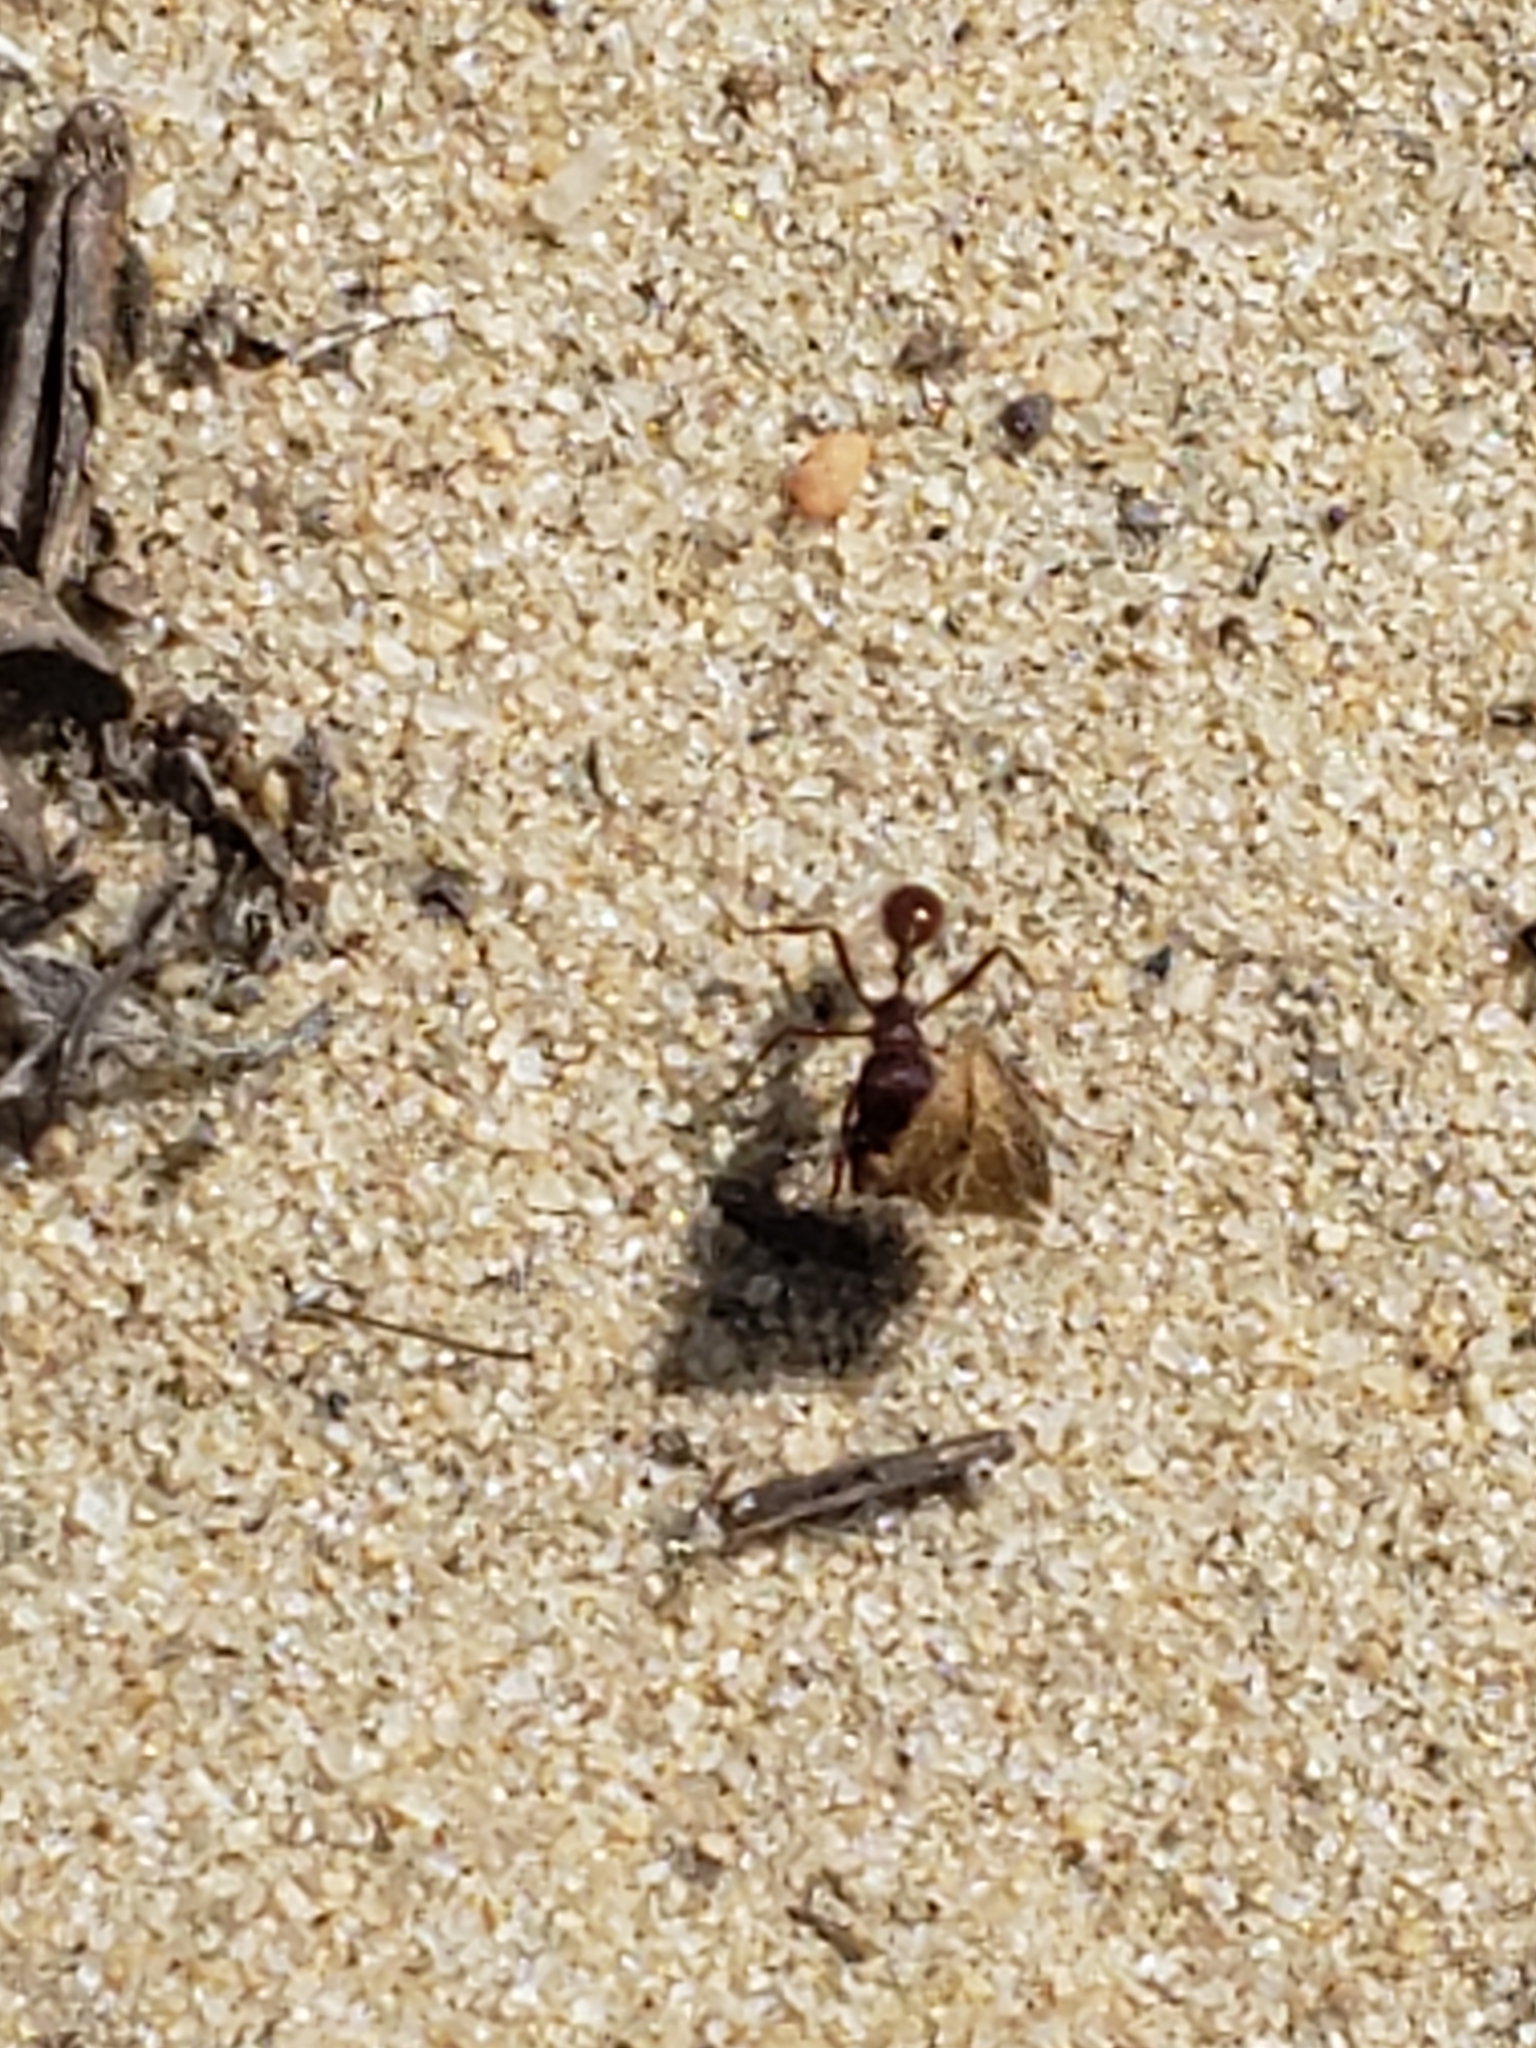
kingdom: Animalia
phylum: Arthropoda
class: Insecta
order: Hymenoptera
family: Formicidae
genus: Pogonomyrmex
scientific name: Pogonomyrmex badius
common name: Florida harvester ant
